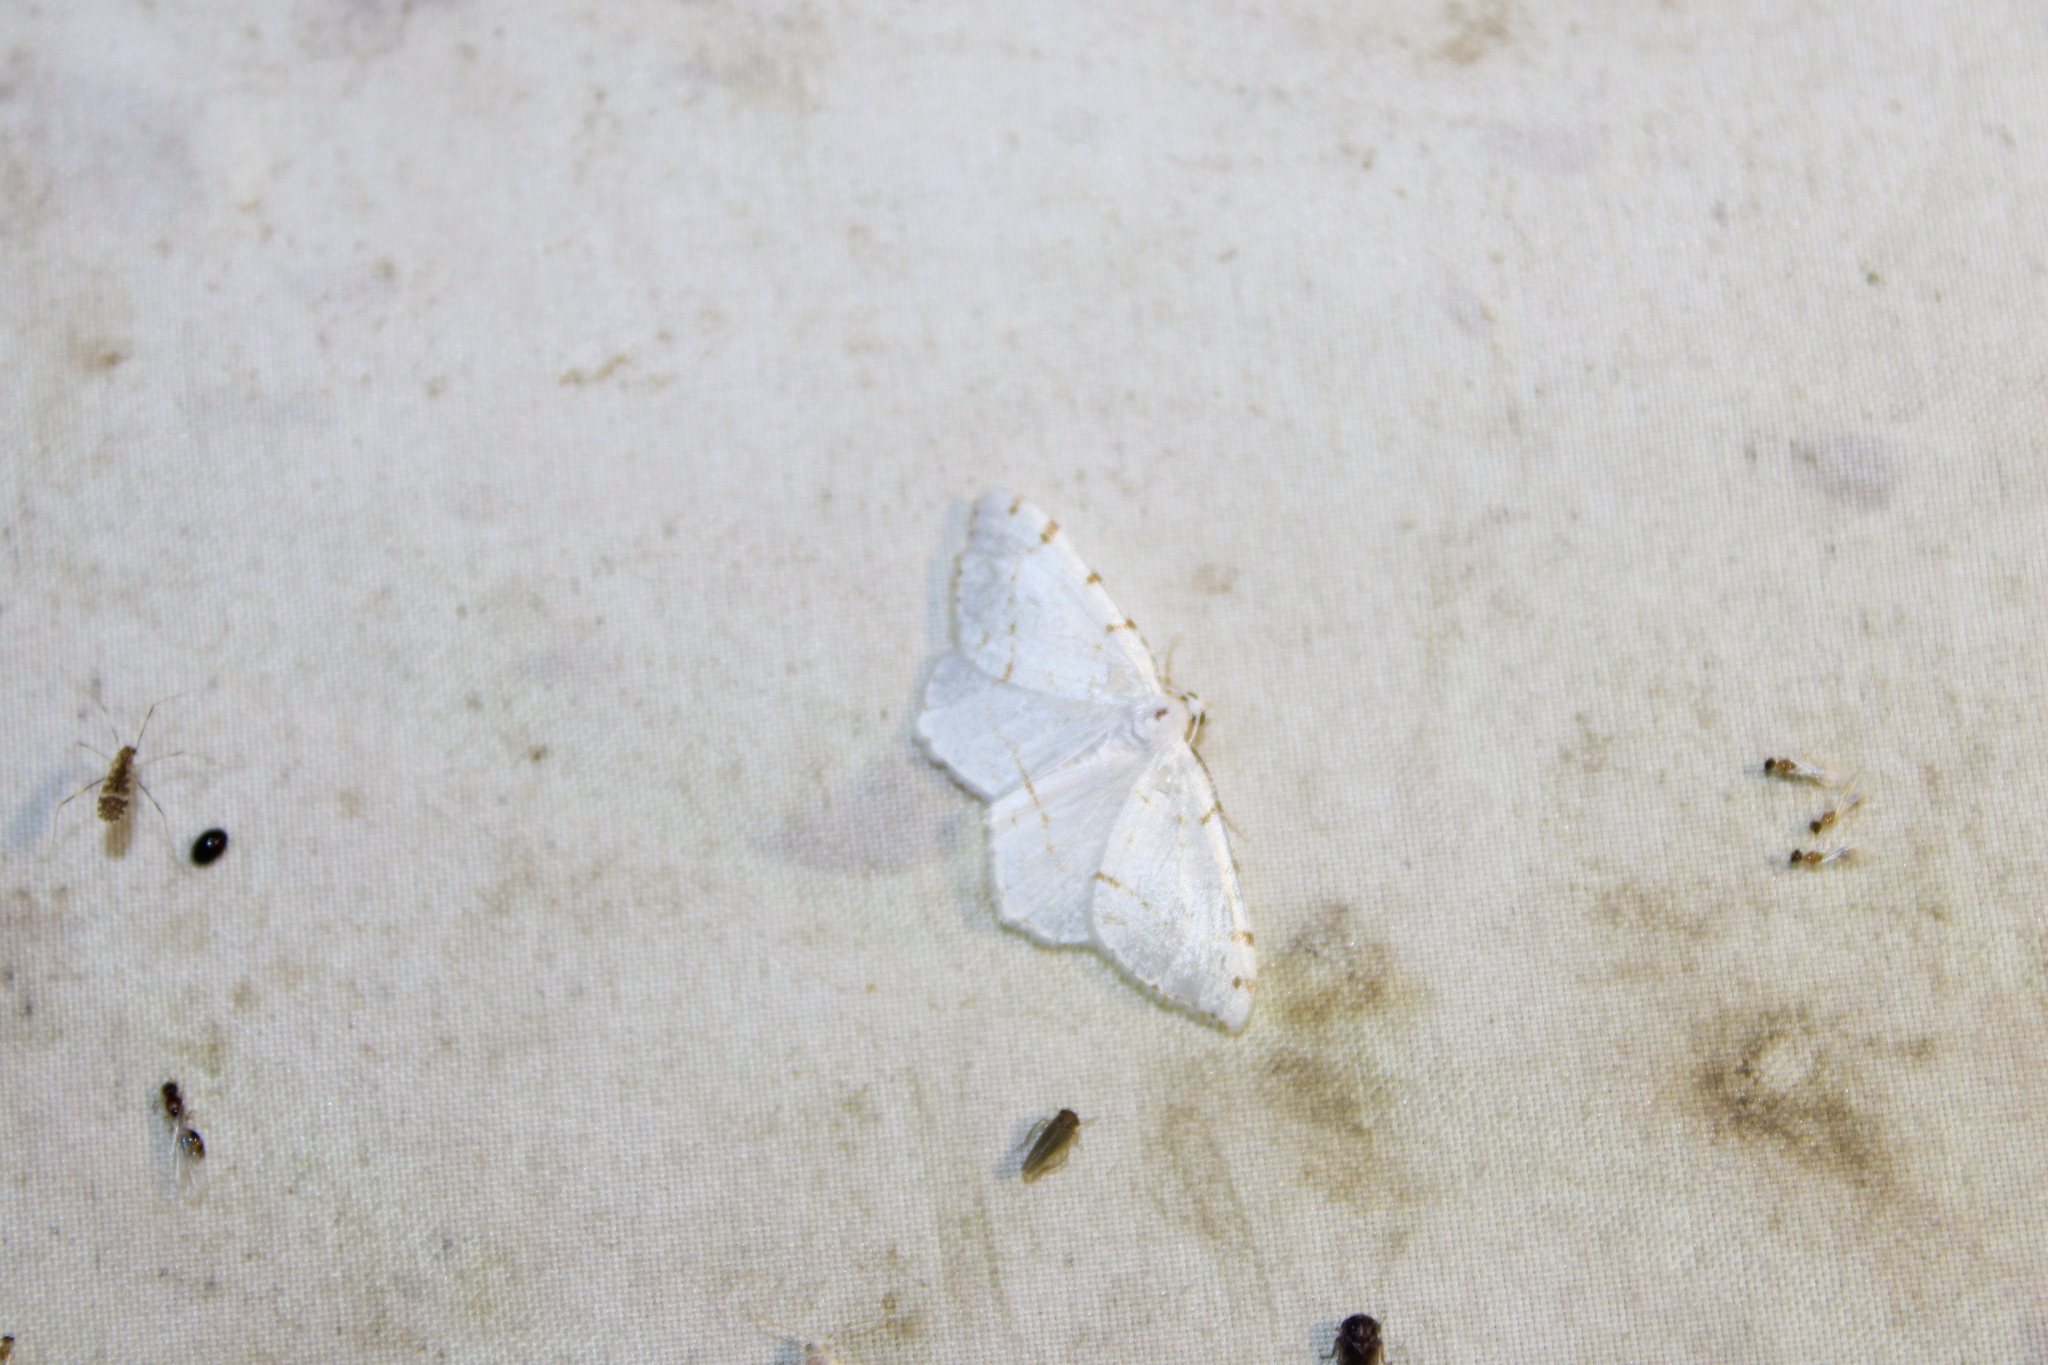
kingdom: Animalia
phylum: Arthropoda
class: Insecta
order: Lepidoptera
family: Geometridae
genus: Macaria
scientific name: Macaria pustularia
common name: Lesser maple spanworm moth
